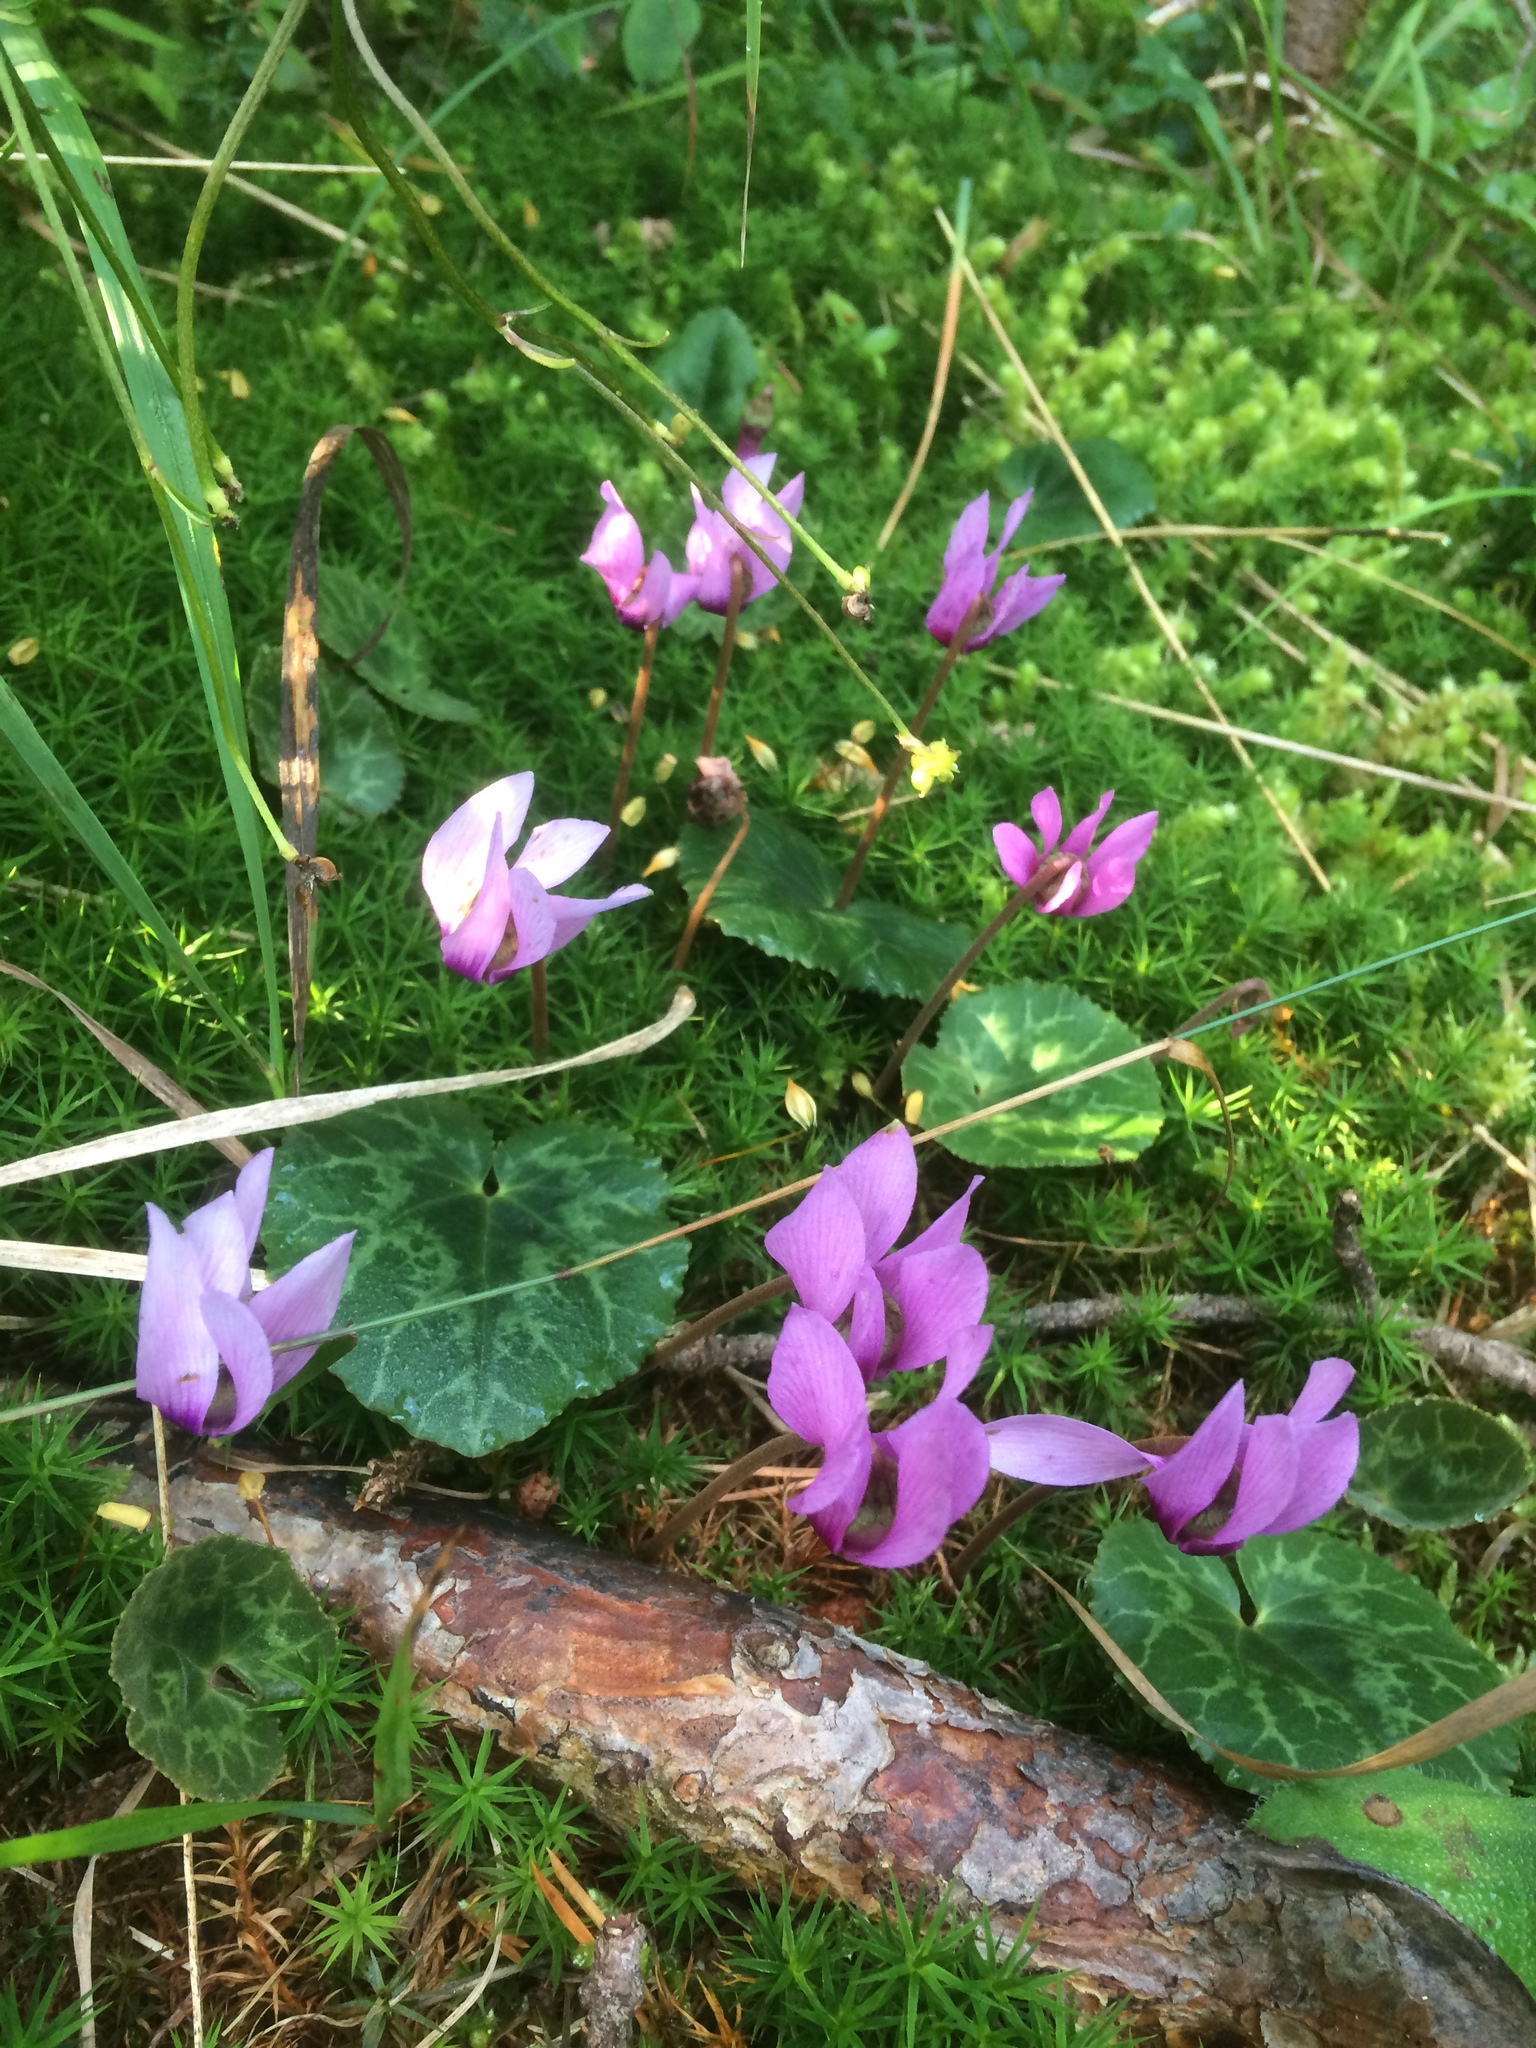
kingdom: Plantae
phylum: Tracheophyta
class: Magnoliopsida
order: Ericales
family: Primulaceae
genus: Cyclamen
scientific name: Cyclamen purpurascens
